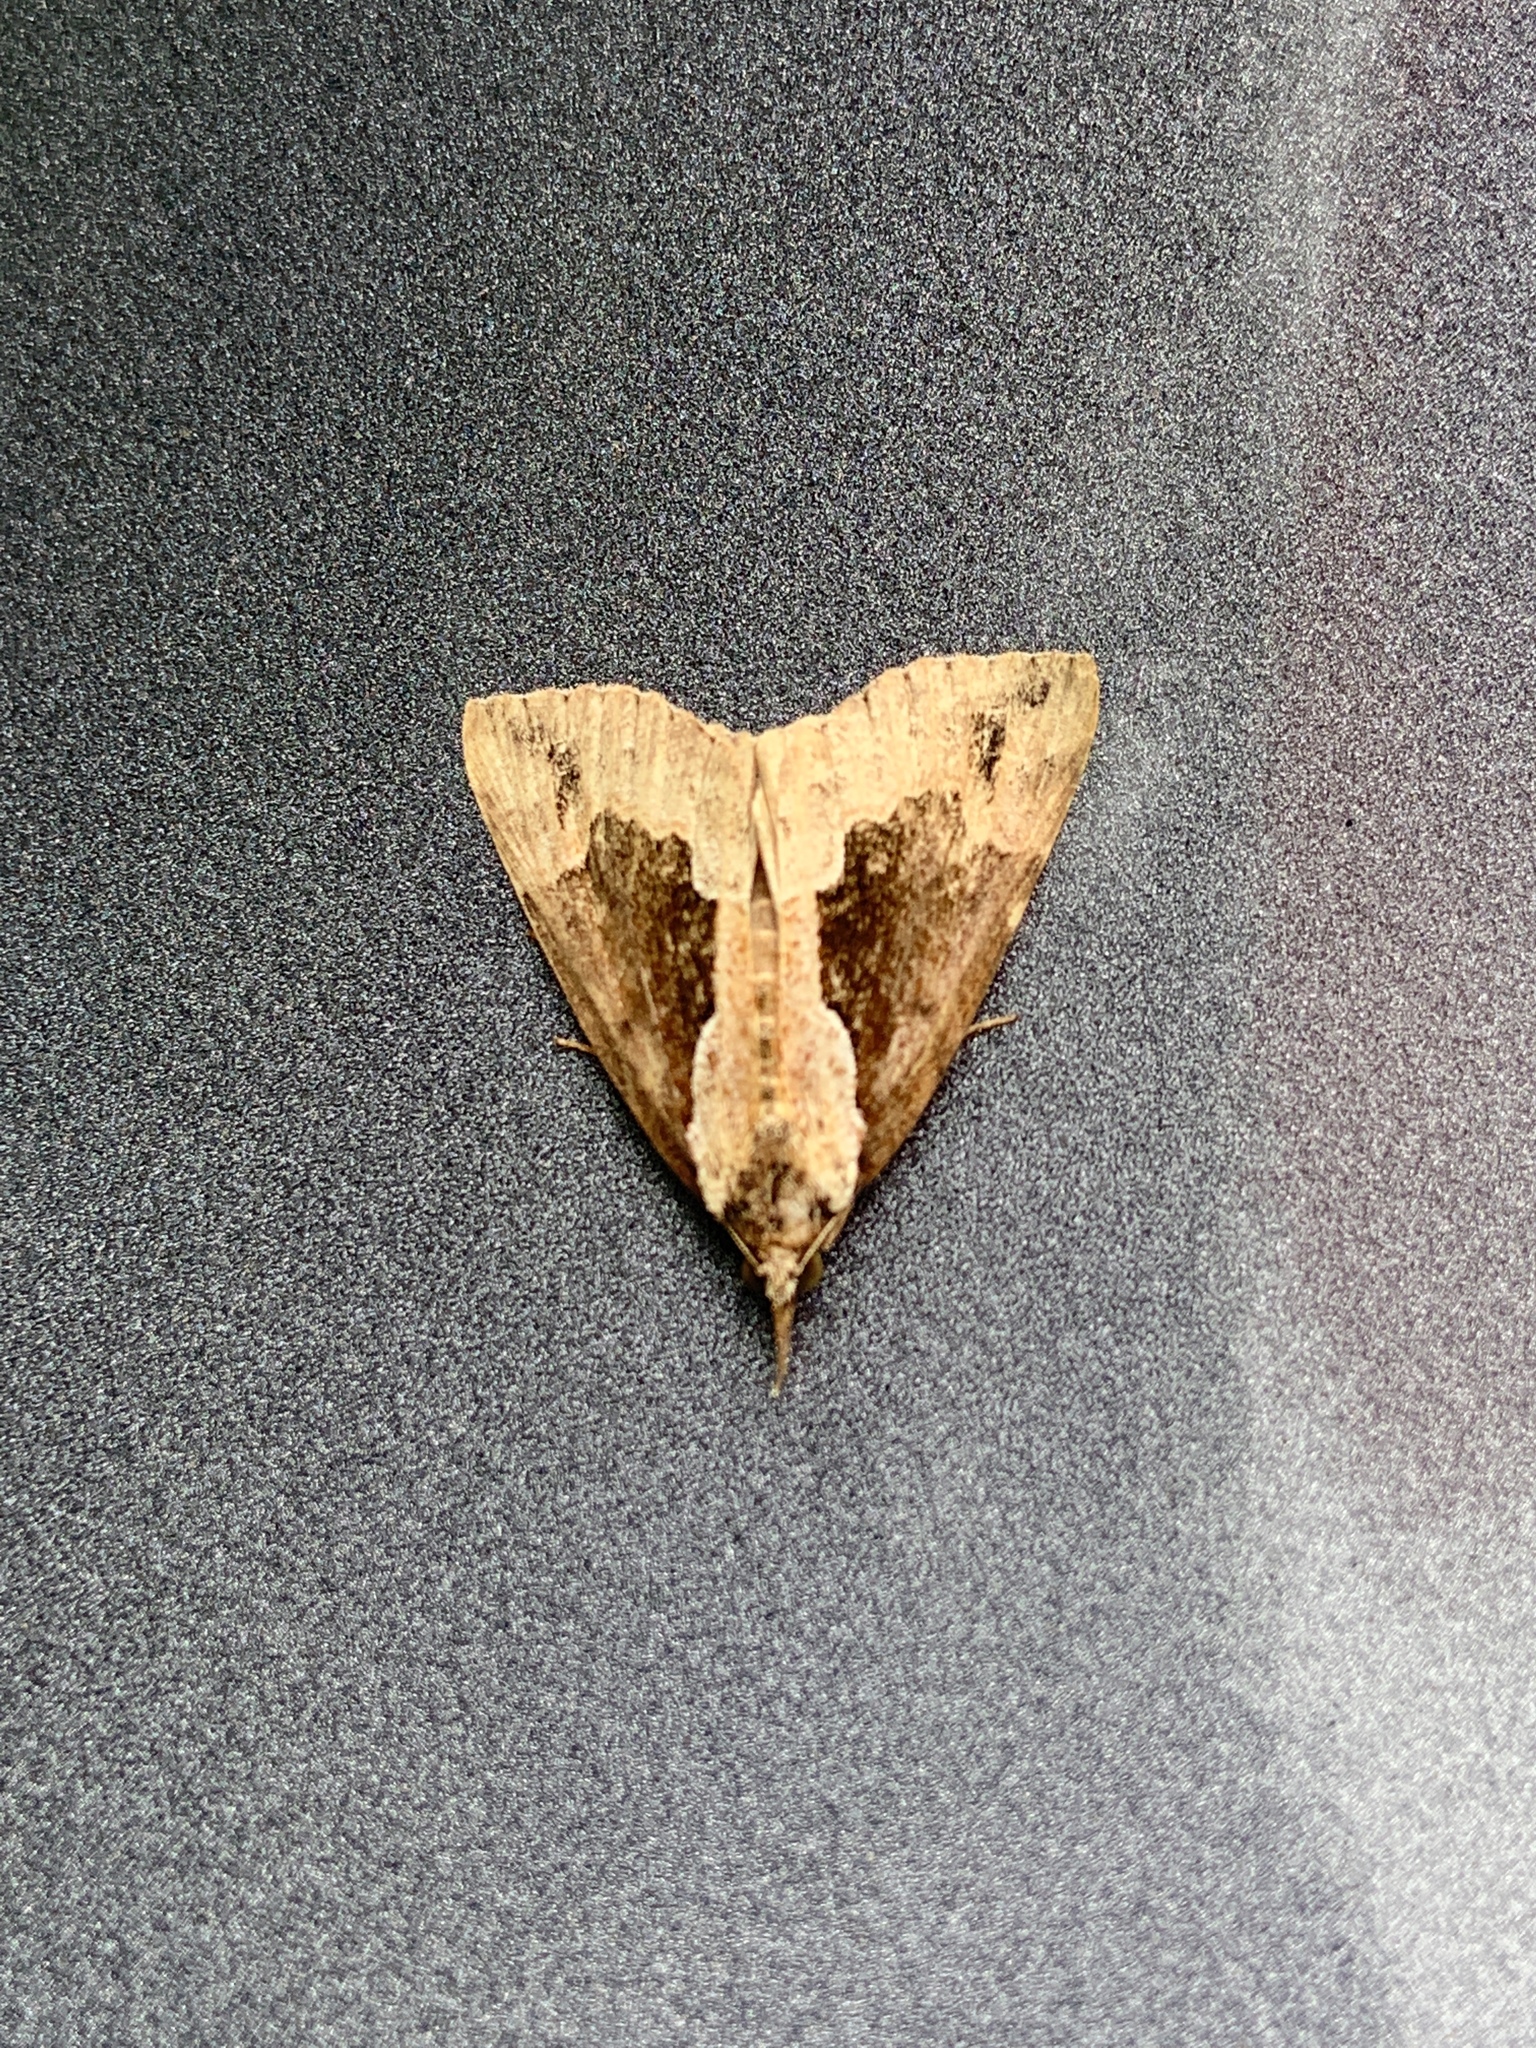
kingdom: Animalia
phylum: Arthropoda
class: Insecta
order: Lepidoptera
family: Erebidae
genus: Hypena
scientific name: Hypena baltimoralis
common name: Baltimore snout
